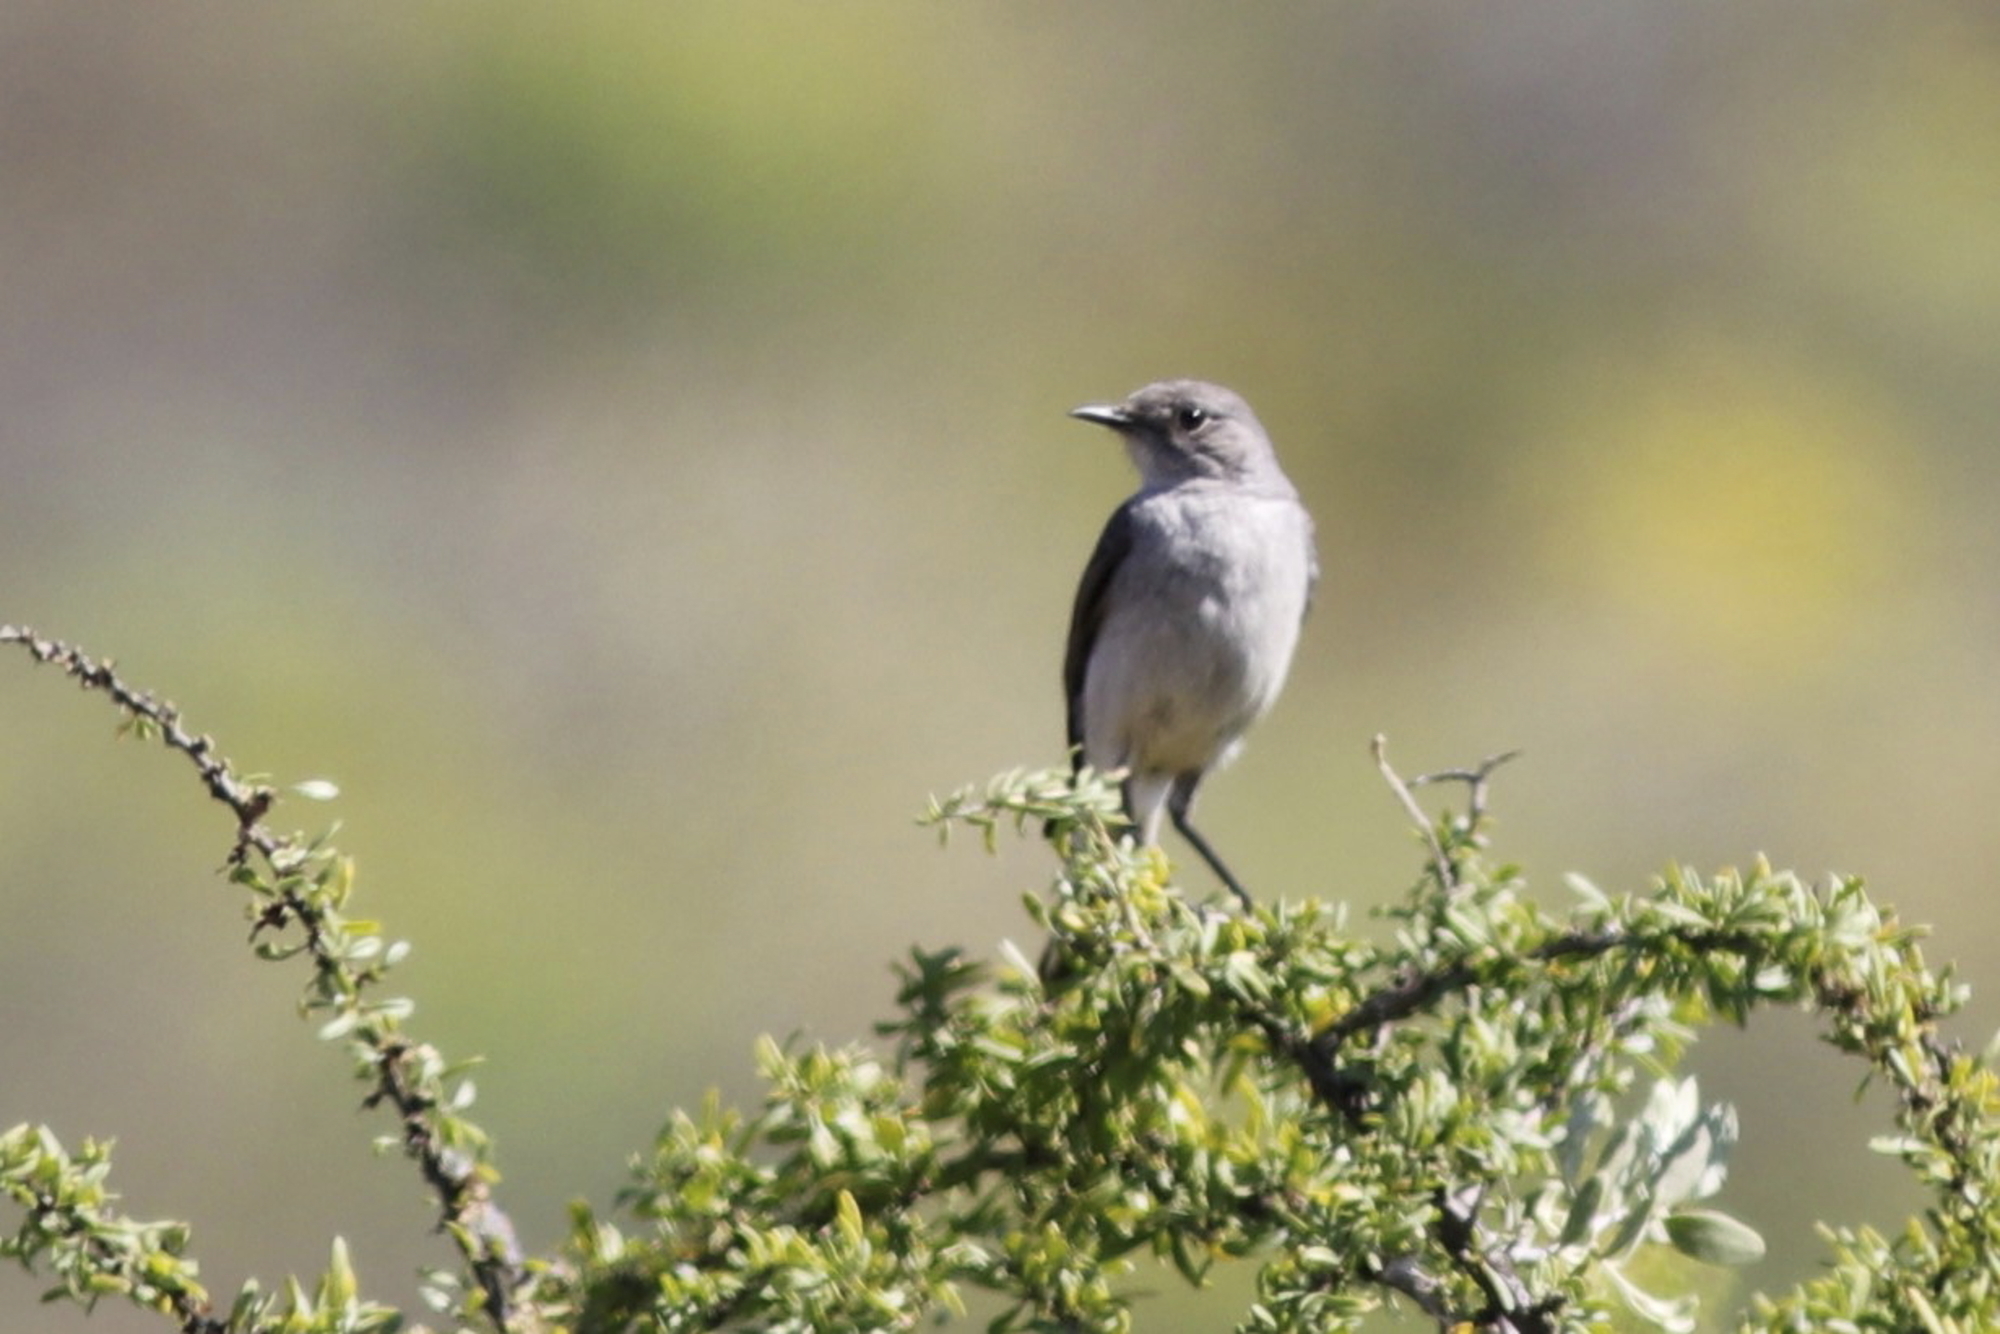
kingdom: Animalia
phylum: Chordata
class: Aves
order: Passeriformes
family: Muscicapidae
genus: Emarginata
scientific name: Emarginata schlegelii
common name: Karoo chat
